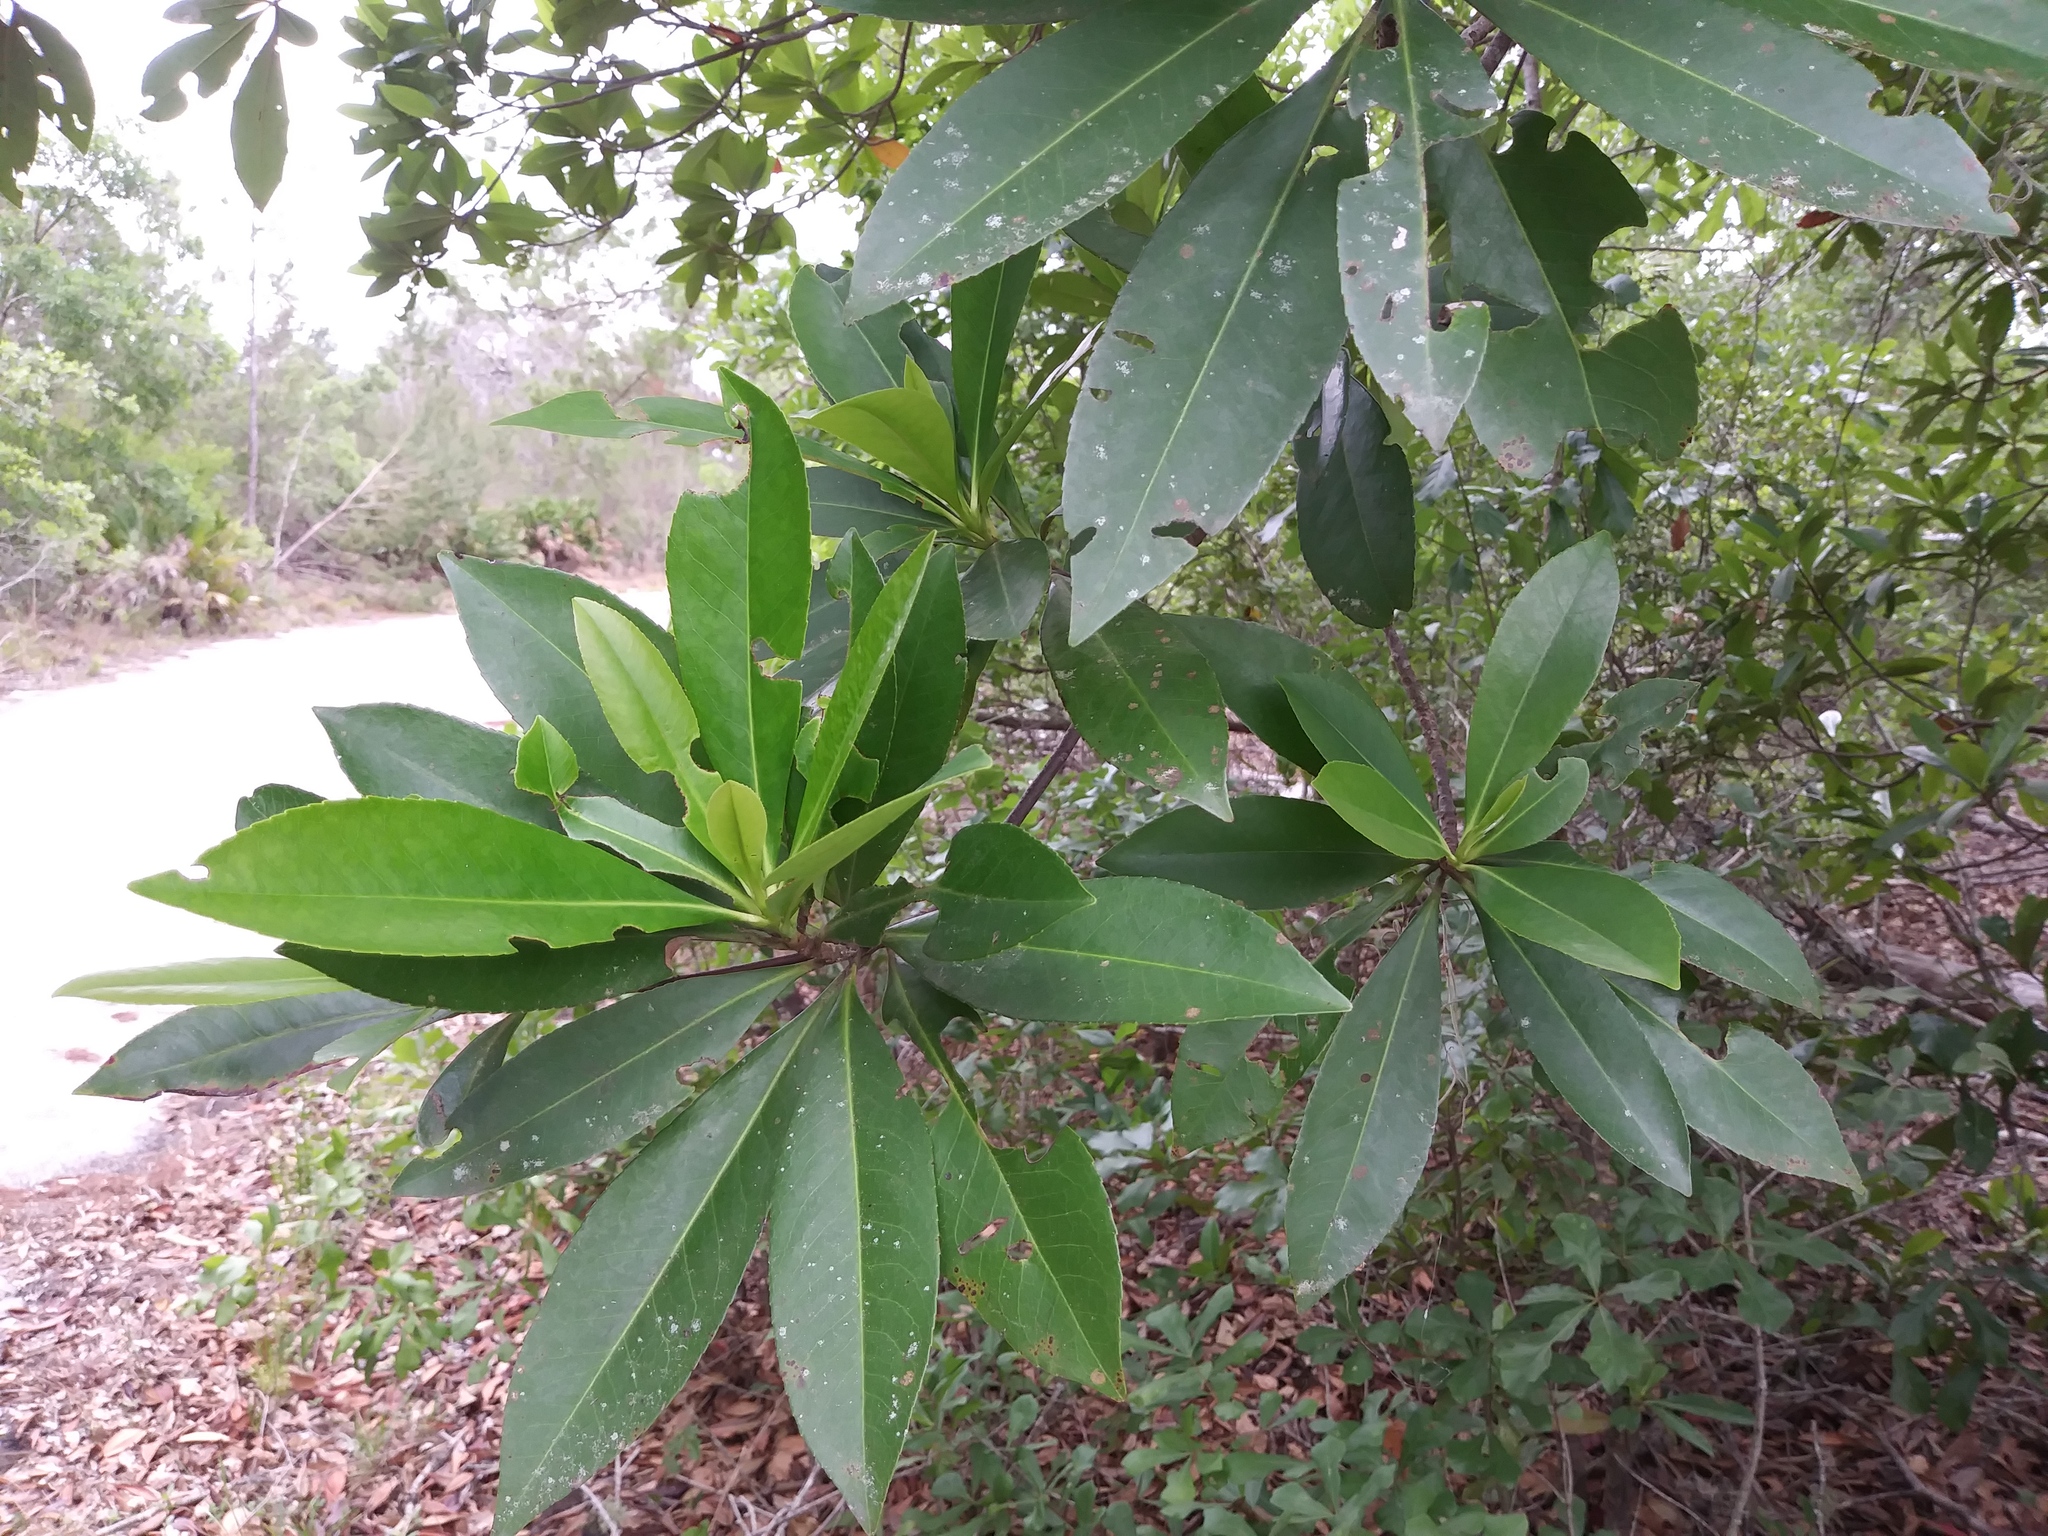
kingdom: Plantae
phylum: Tracheophyta
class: Magnoliopsida
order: Ericales
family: Theaceae
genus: Gordonia
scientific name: Gordonia lasianthus
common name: Loblolly bay
